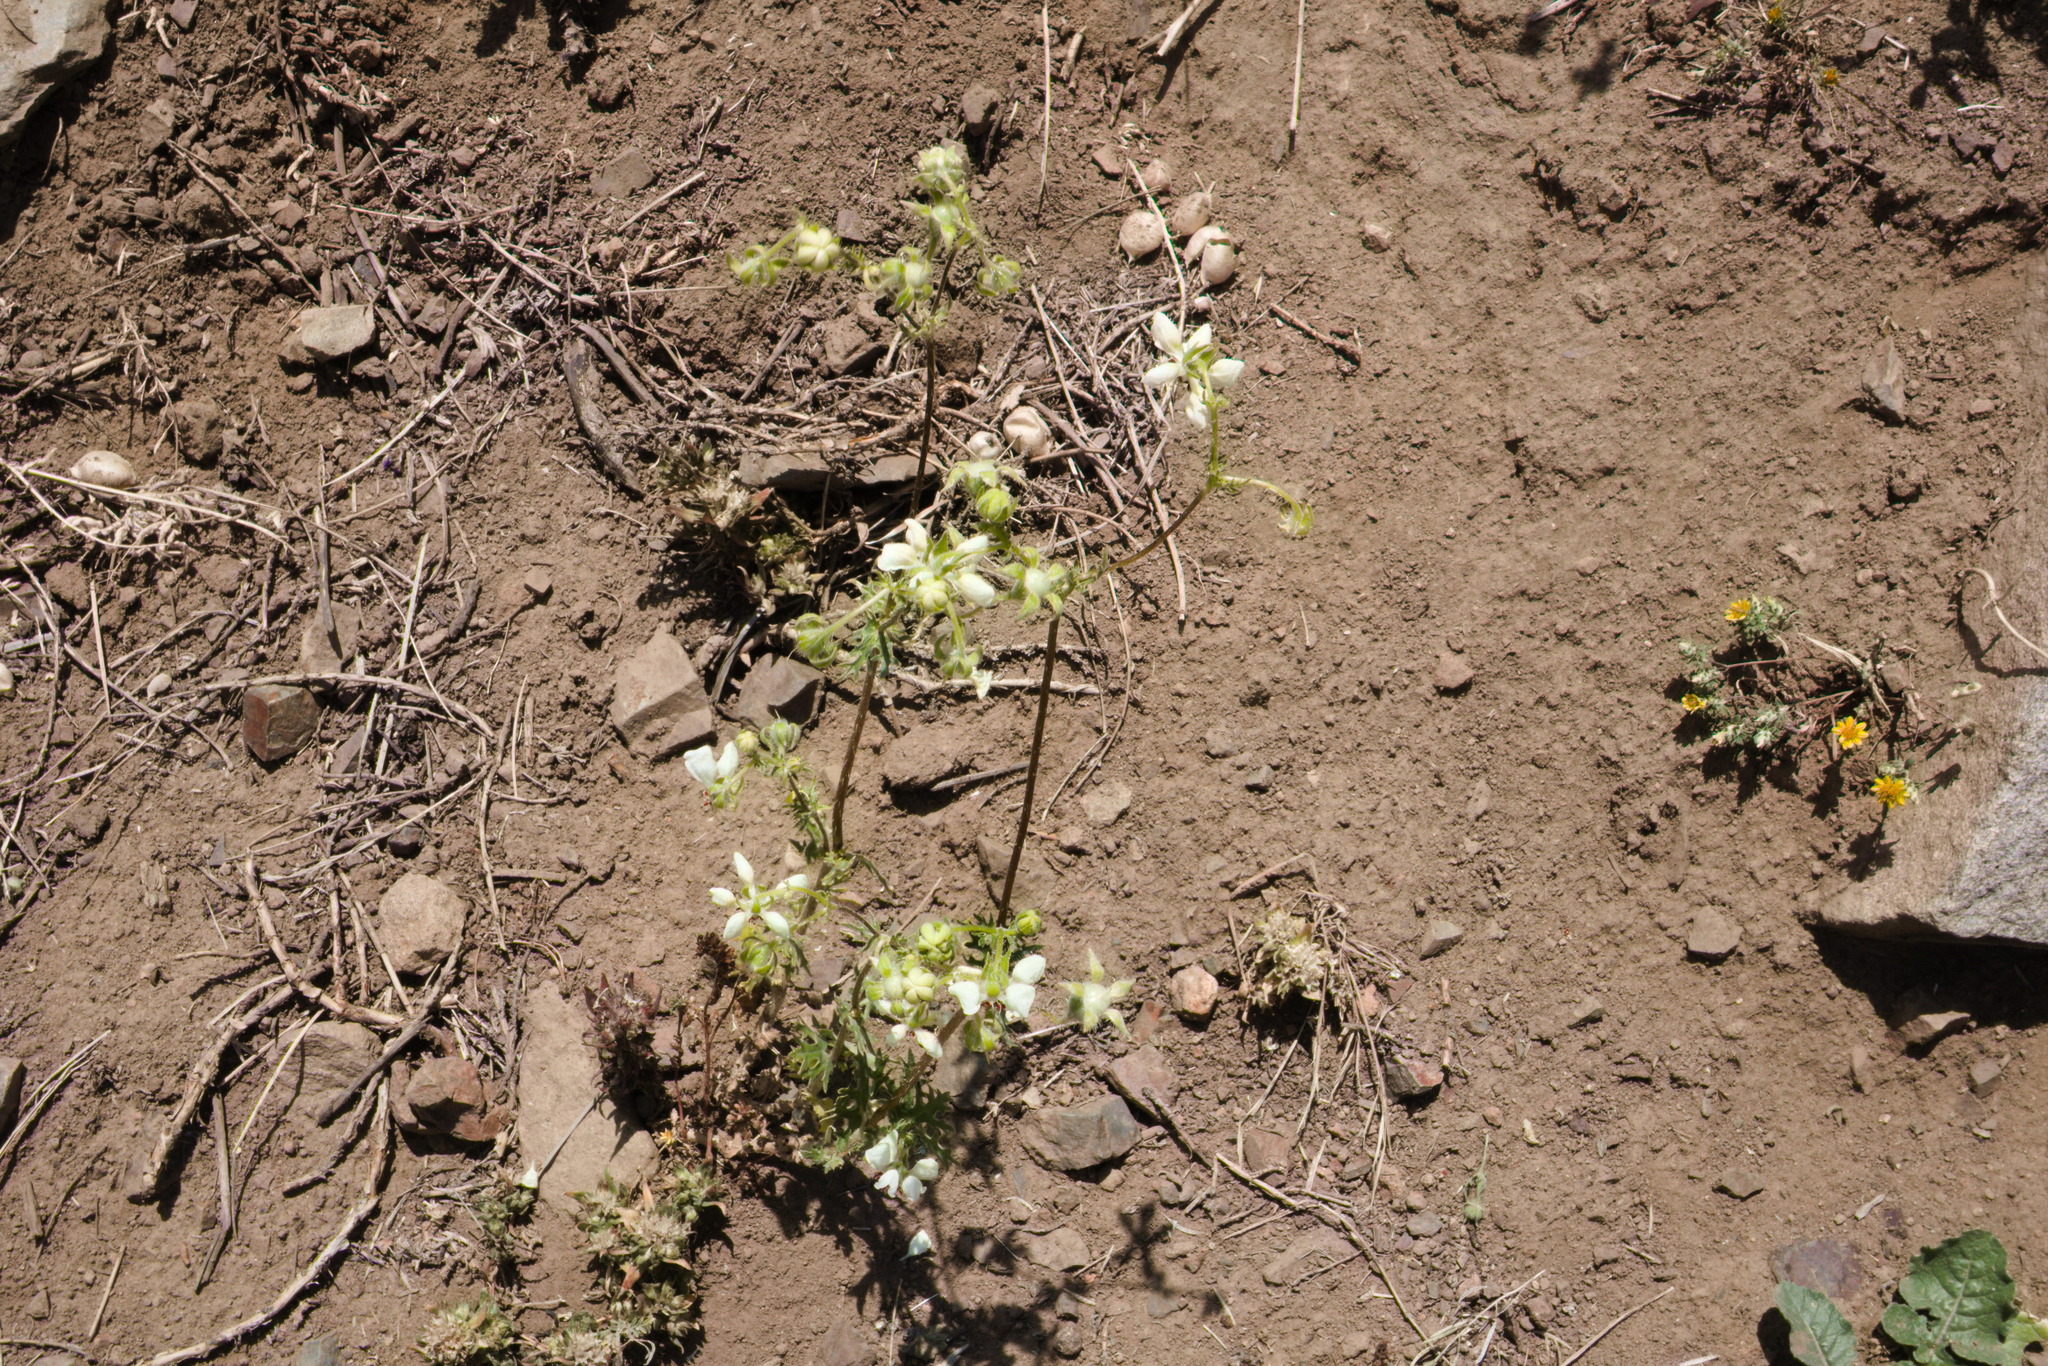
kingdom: Plantae
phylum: Tracheophyta
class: Magnoliopsida
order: Cornales
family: Loasaceae
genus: Loasa
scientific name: Loasa prostrata
